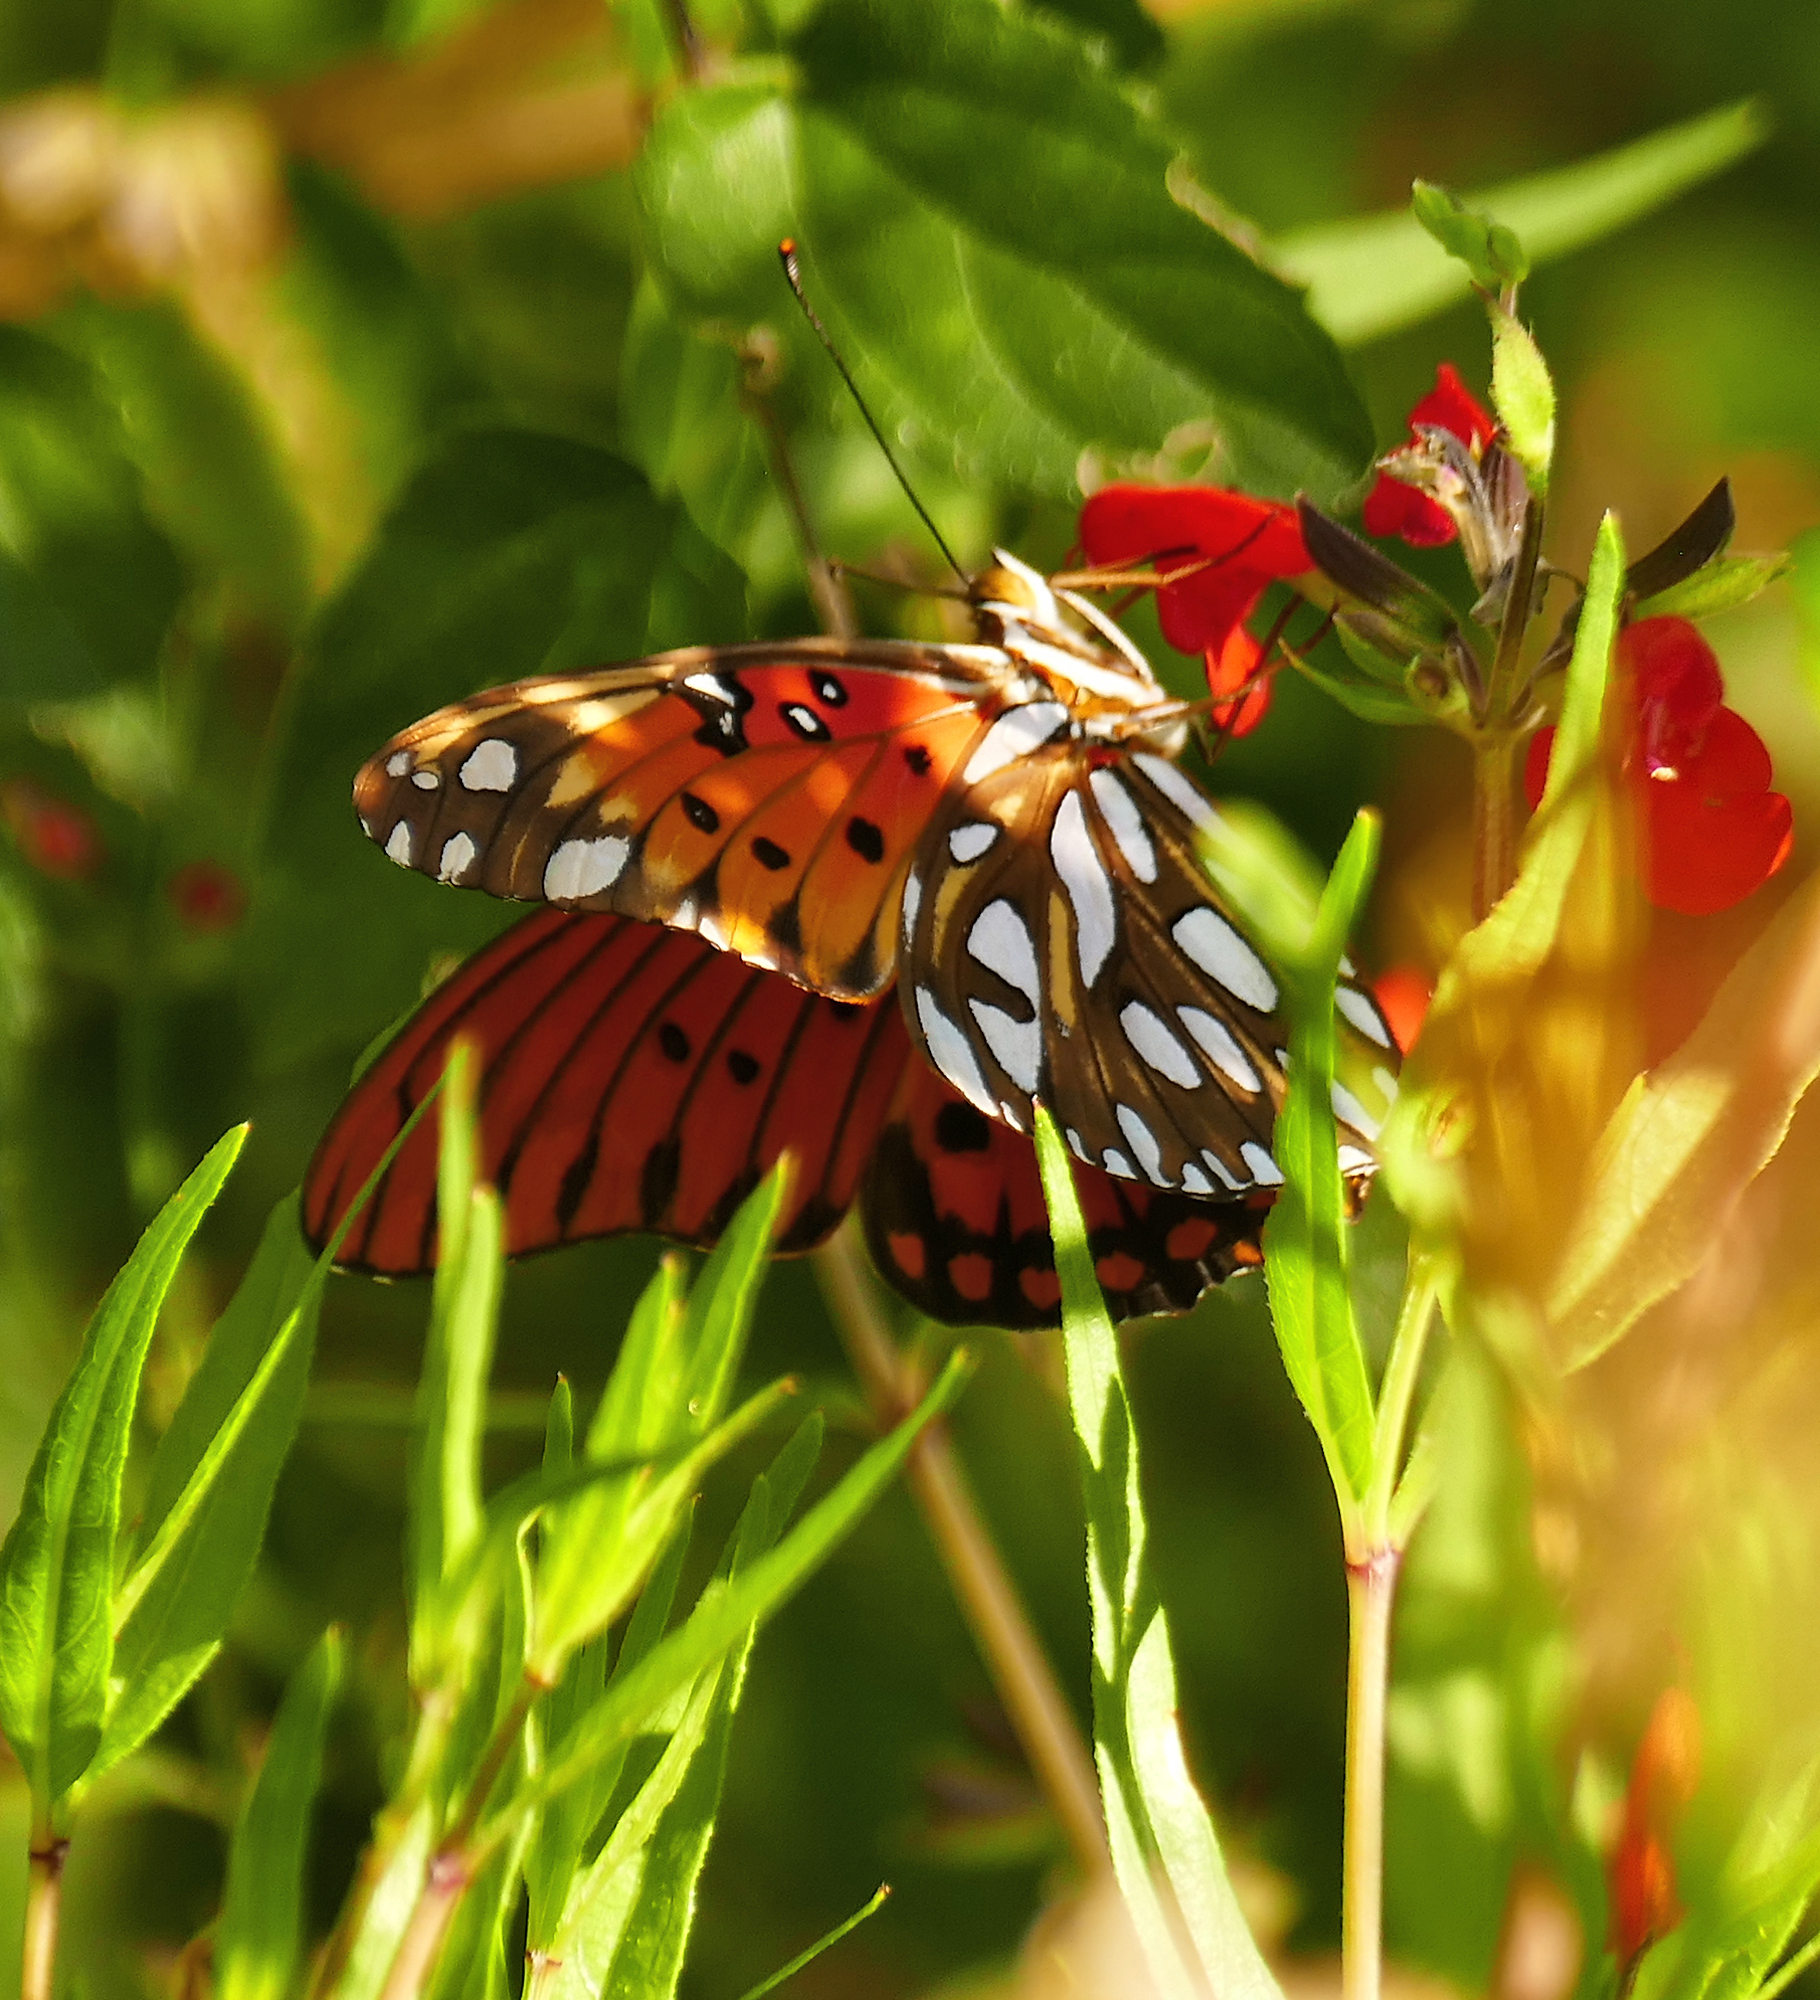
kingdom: Animalia
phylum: Arthropoda
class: Insecta
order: Lepidoptera
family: Nymphalidae
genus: Dione
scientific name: Dione vanillae
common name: Gulf fritillary
